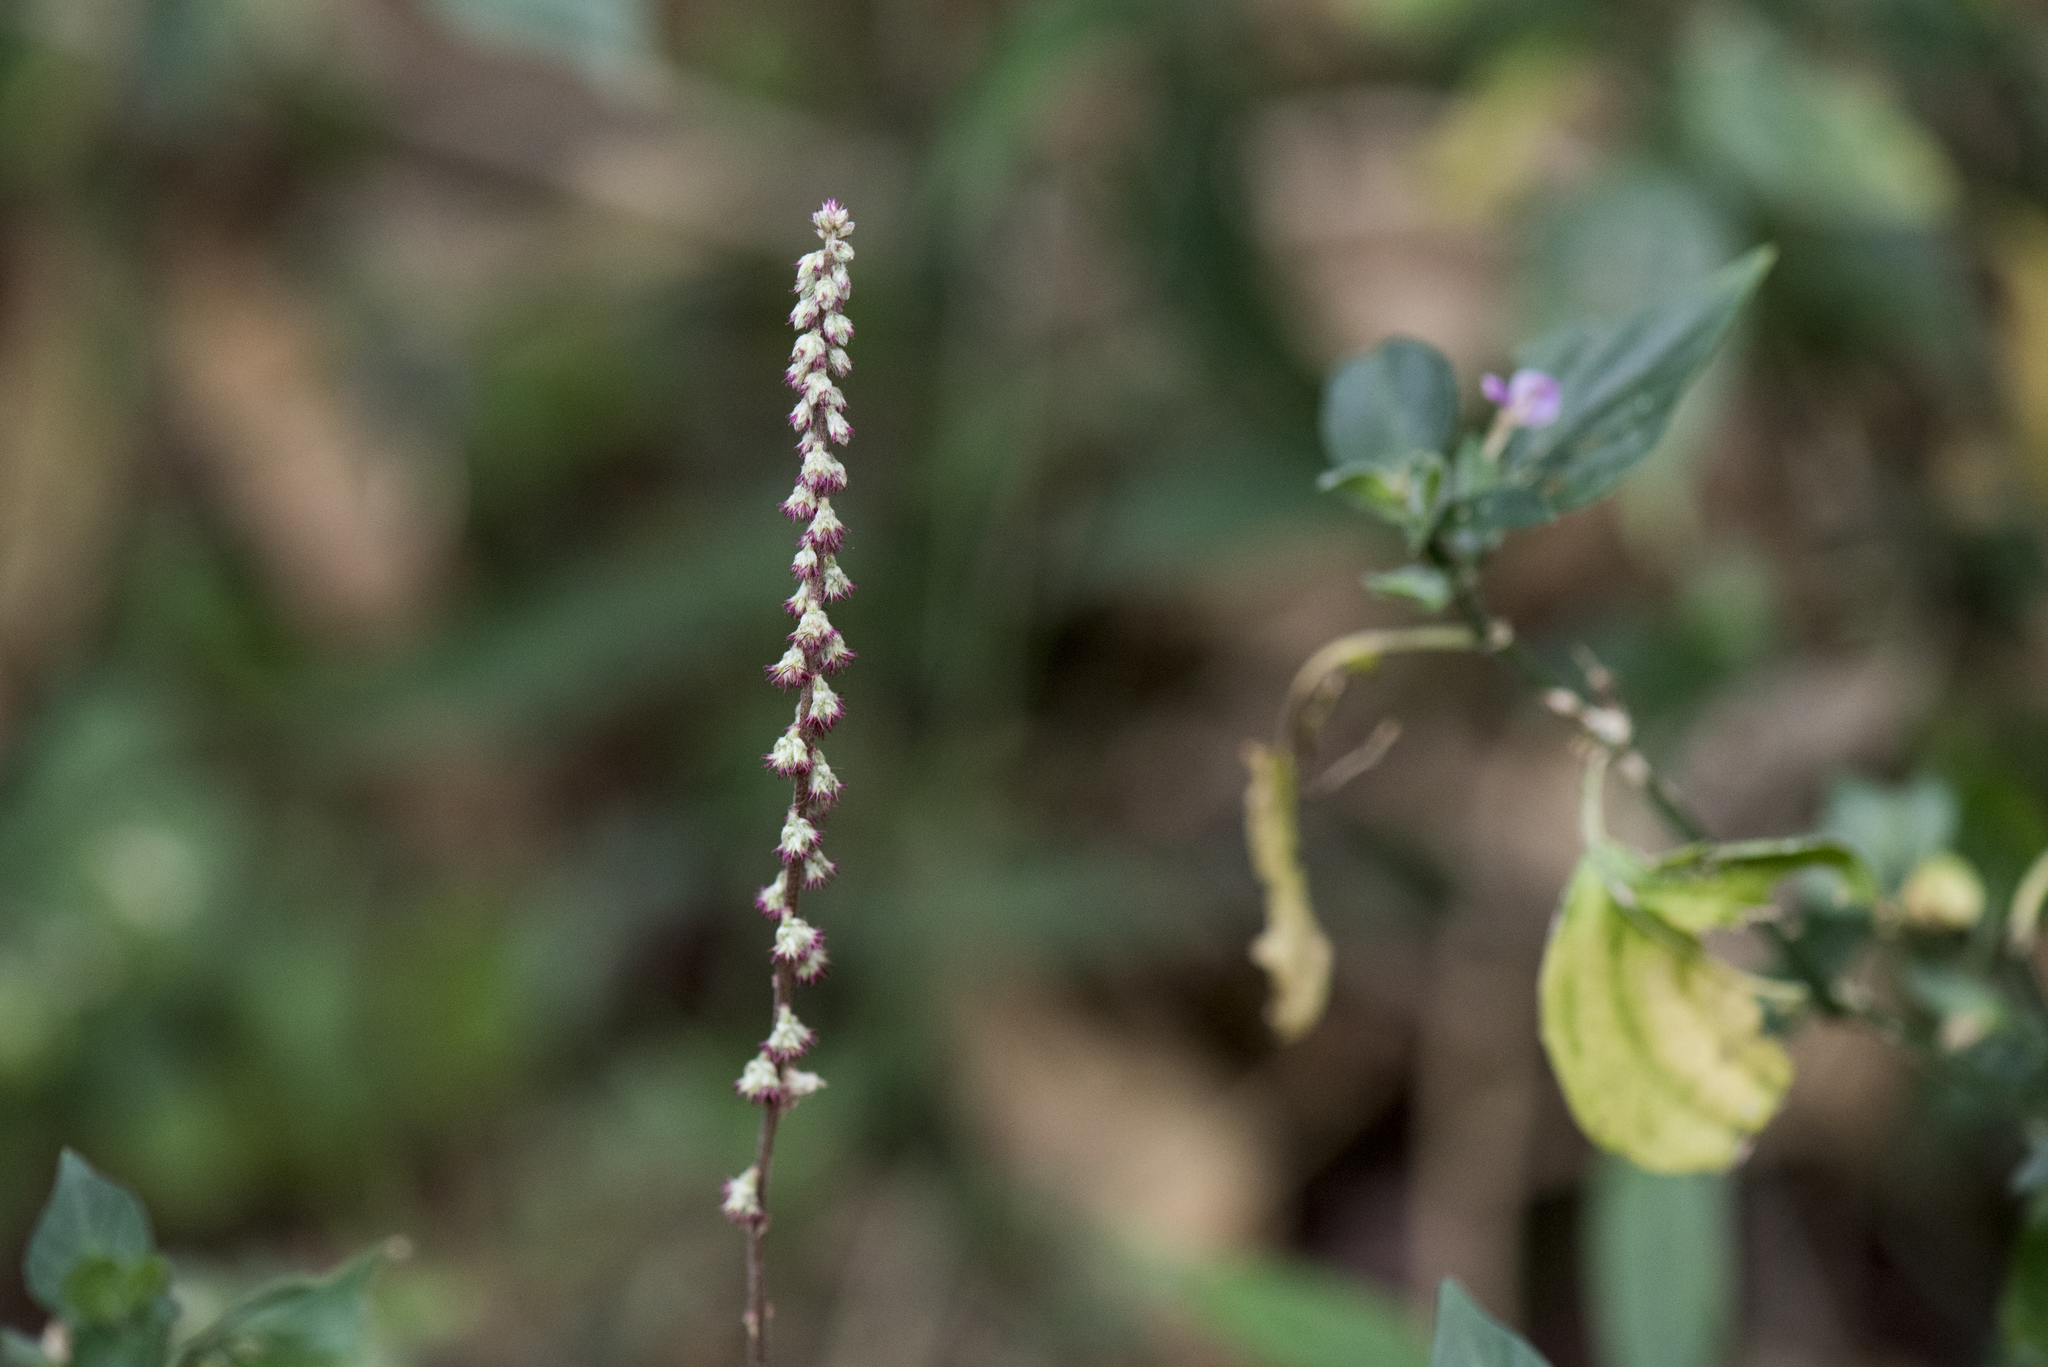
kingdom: Plantae
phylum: Tracheophyta
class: Magnoliopsida
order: Caryophyllales
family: Amaranthaceae
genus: Cyathula
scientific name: Cyathula prostrata
